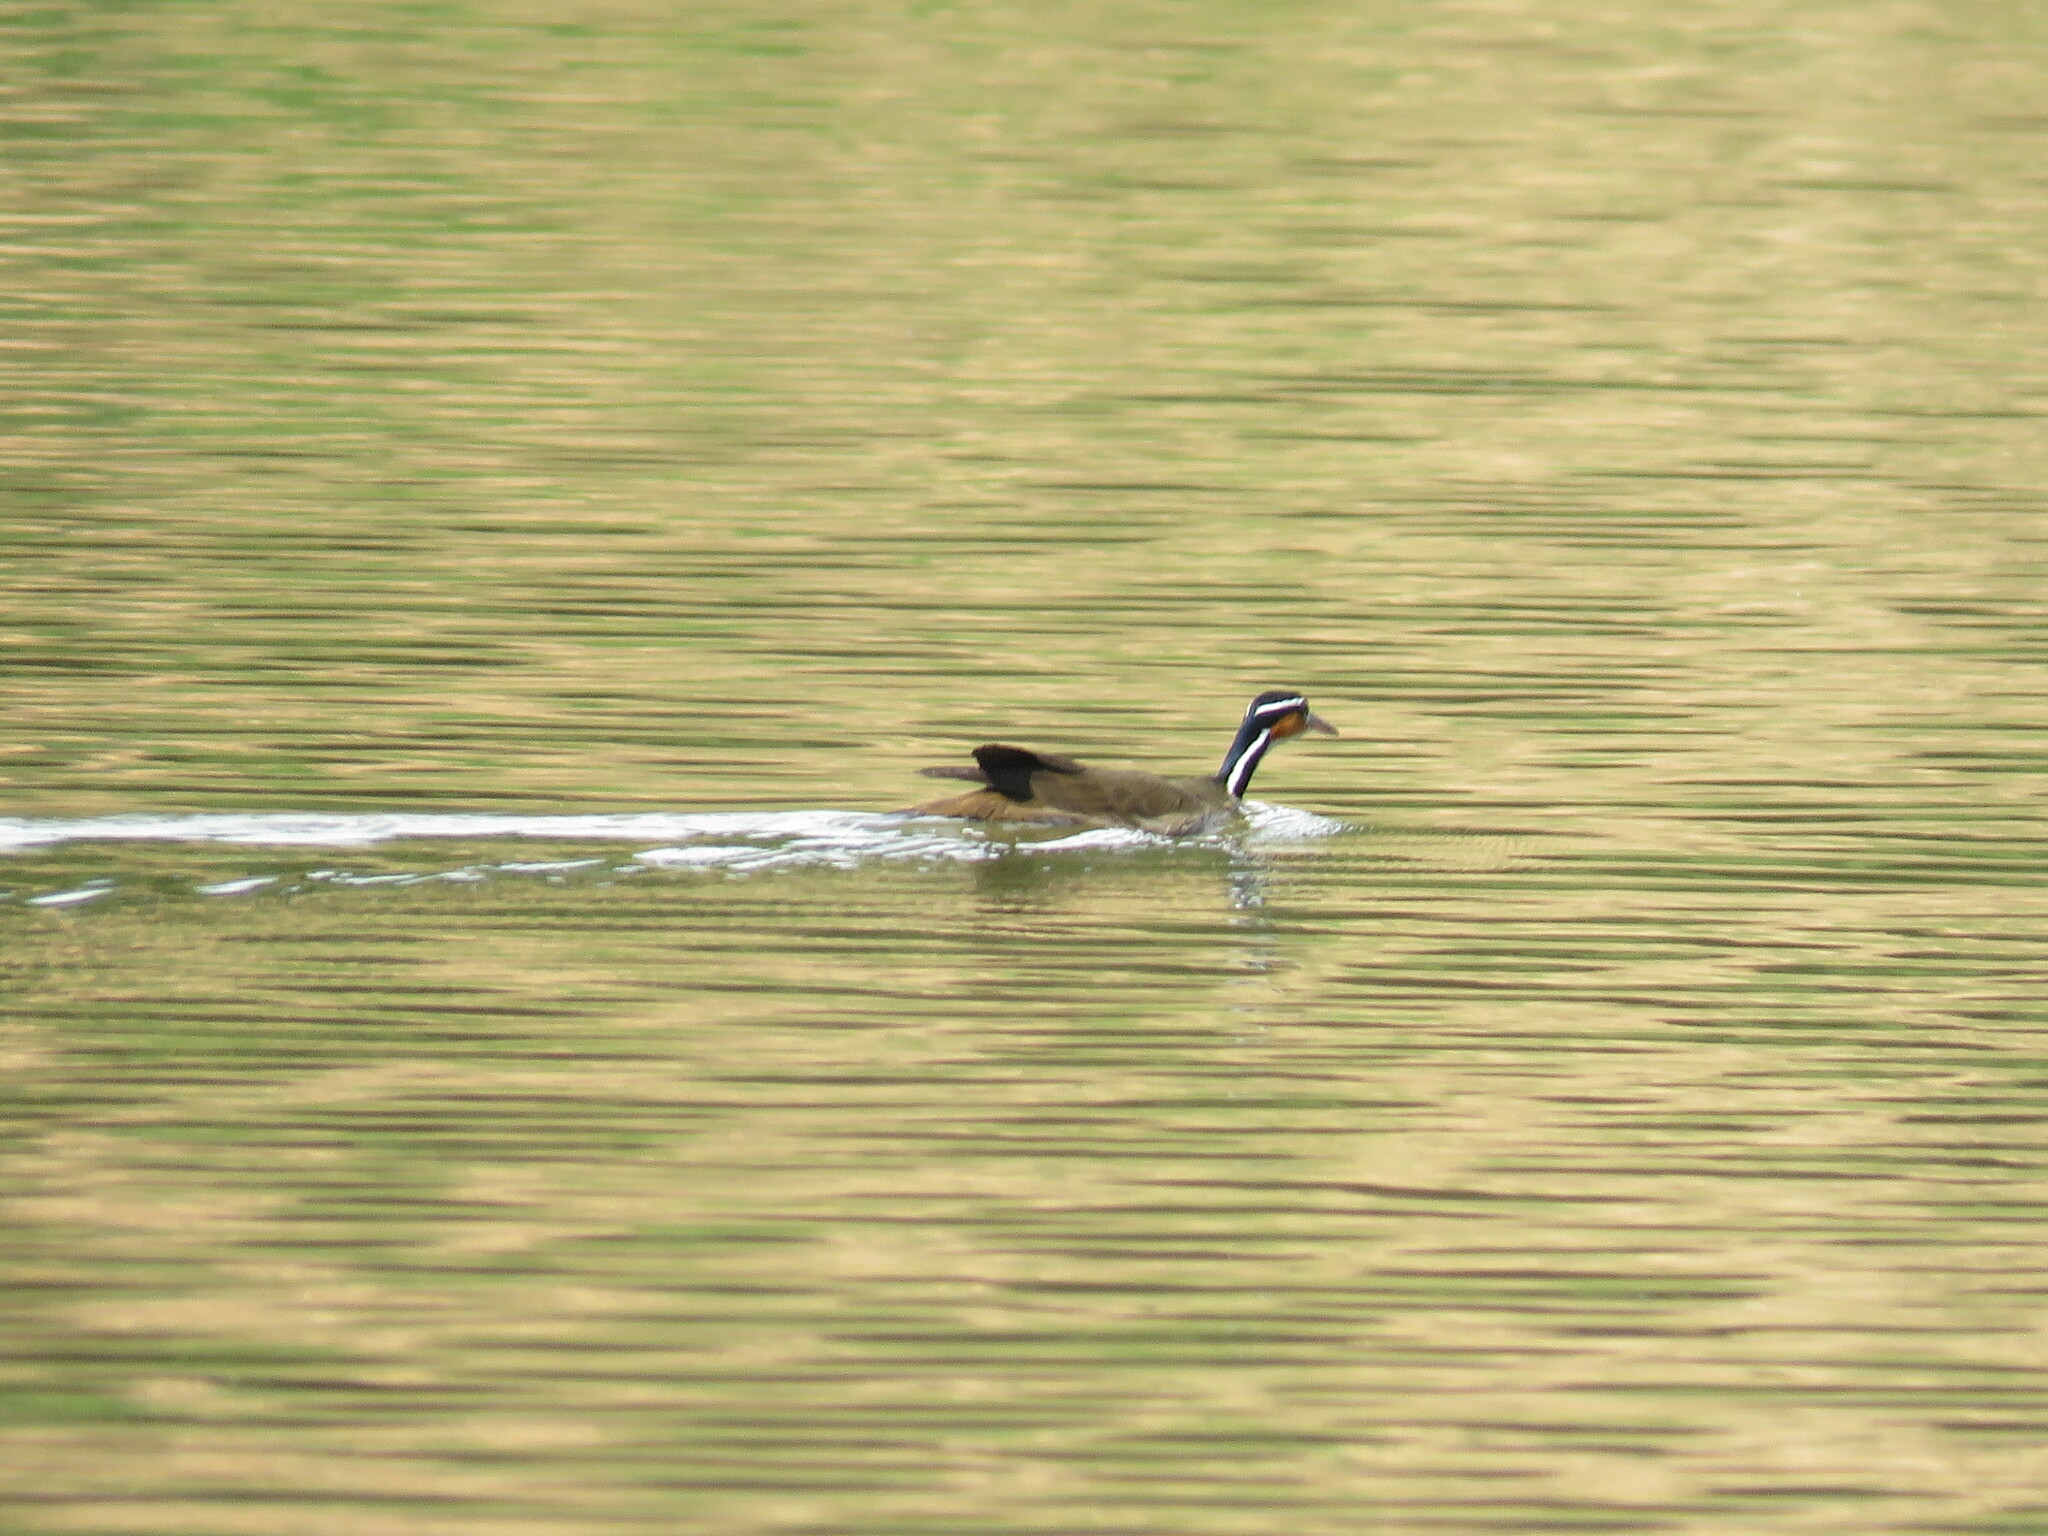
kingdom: Animalia
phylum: Chordata
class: Aves
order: Gruiformes
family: Heliornithidae
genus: Heliornis
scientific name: Heliornis fulica
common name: Sungrebe
